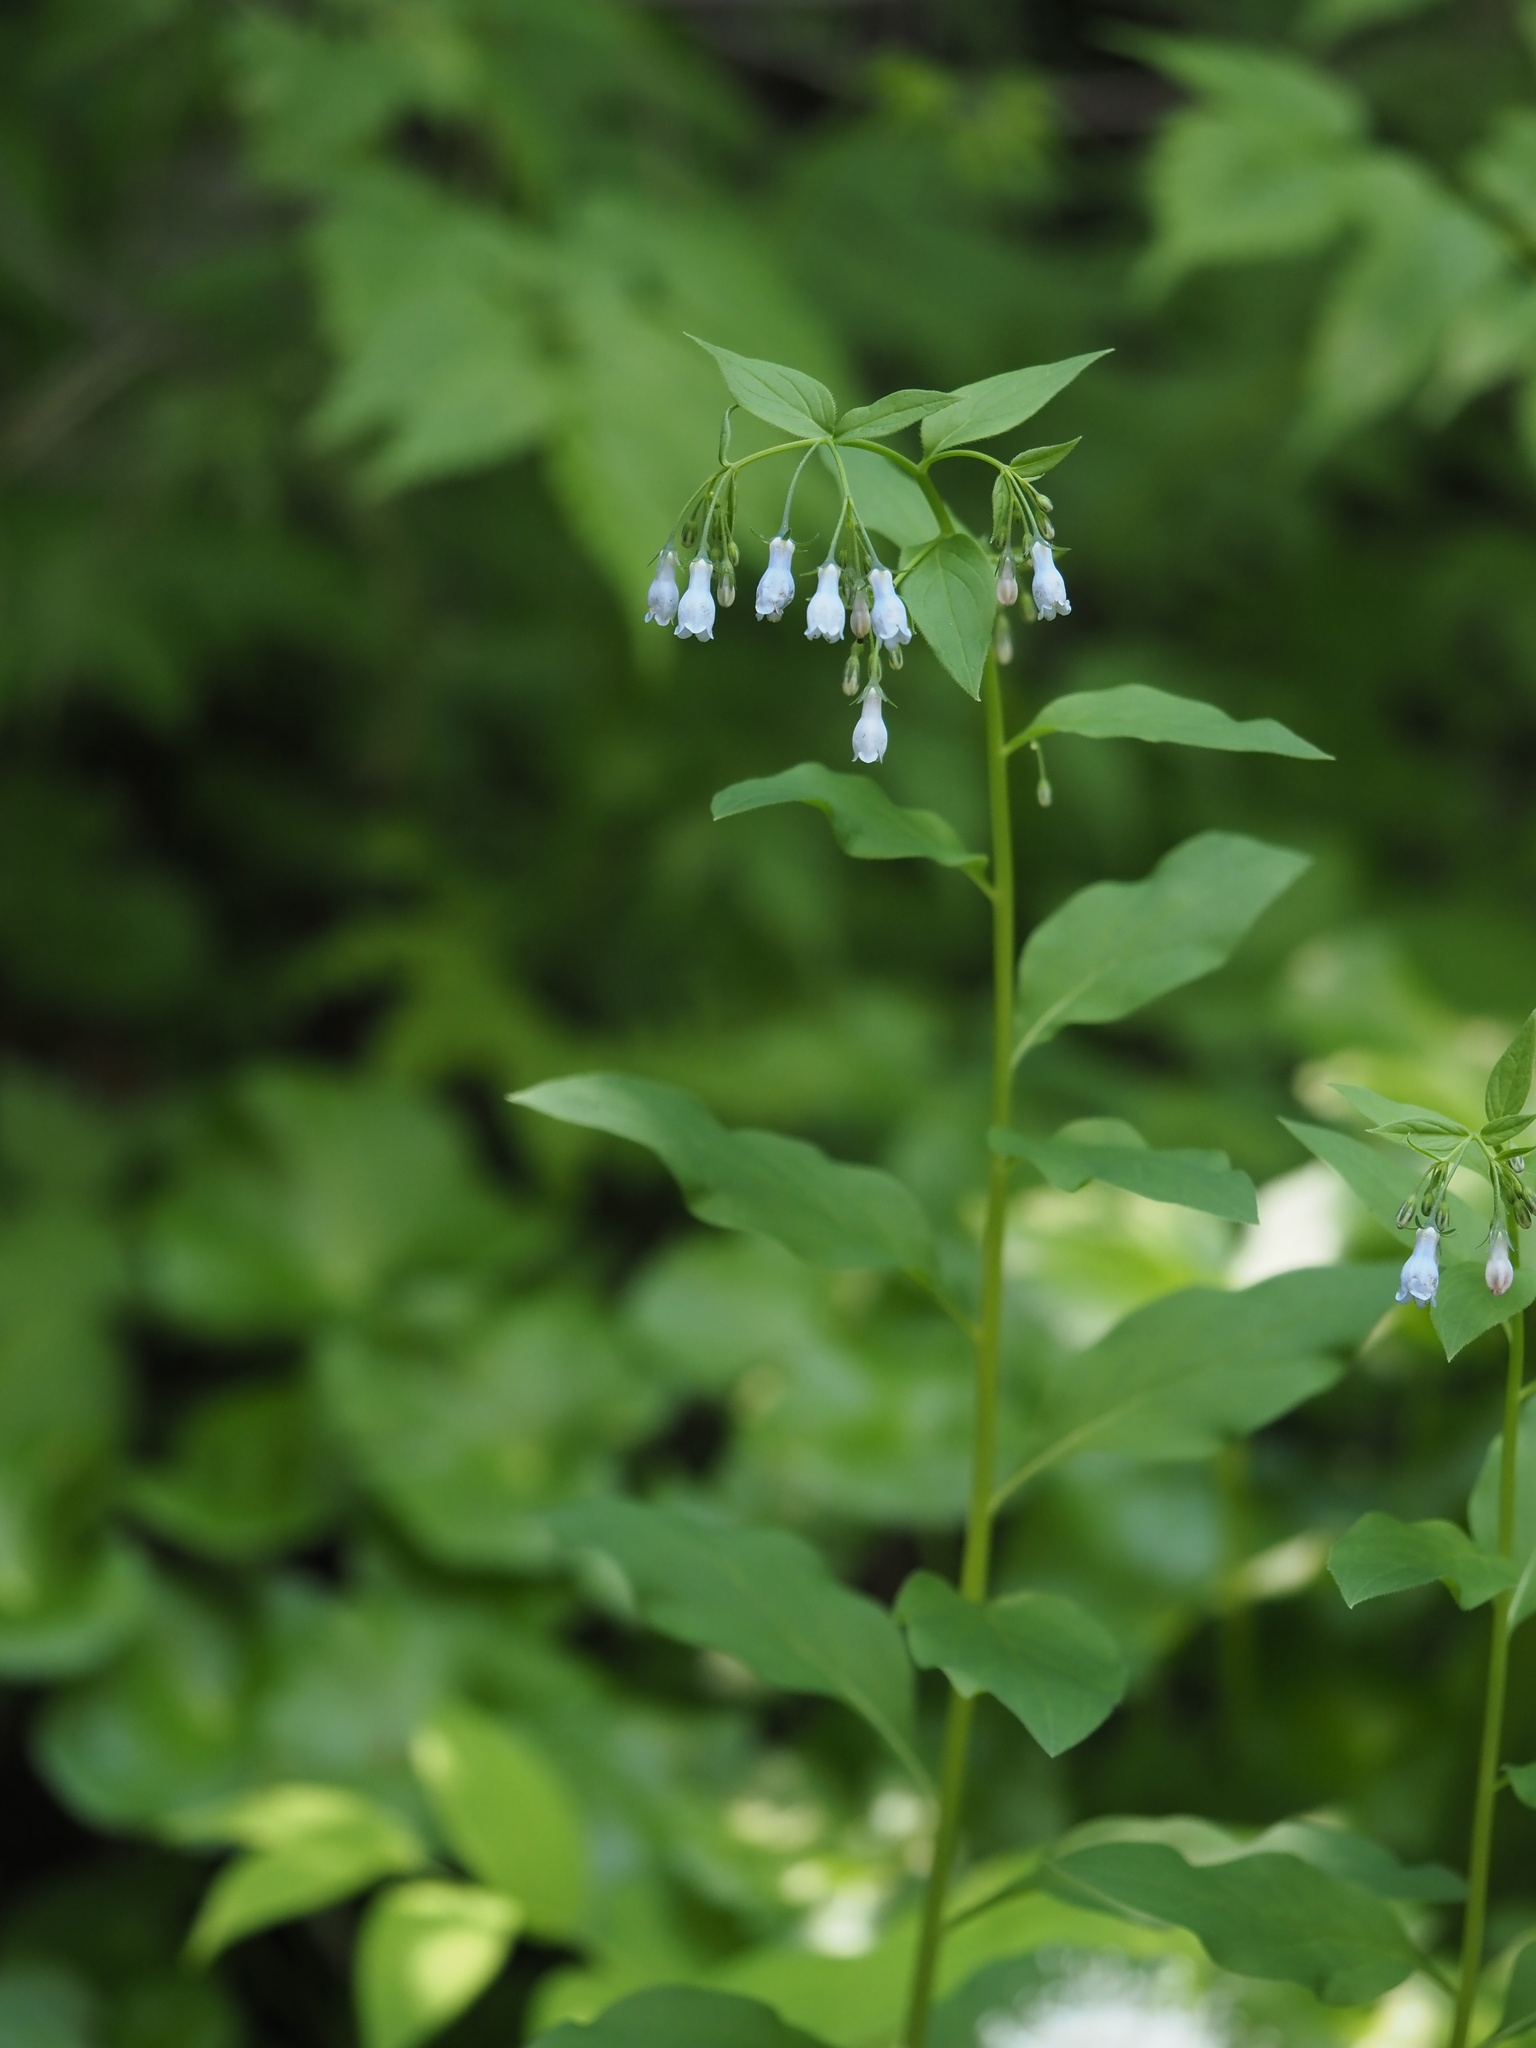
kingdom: Plantae
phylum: Tracheophyta
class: Magnoliopsida
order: Boraginales
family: Boraginaceae
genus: Mertensia
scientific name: Mertensia paniculata
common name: Panicled bluebells
